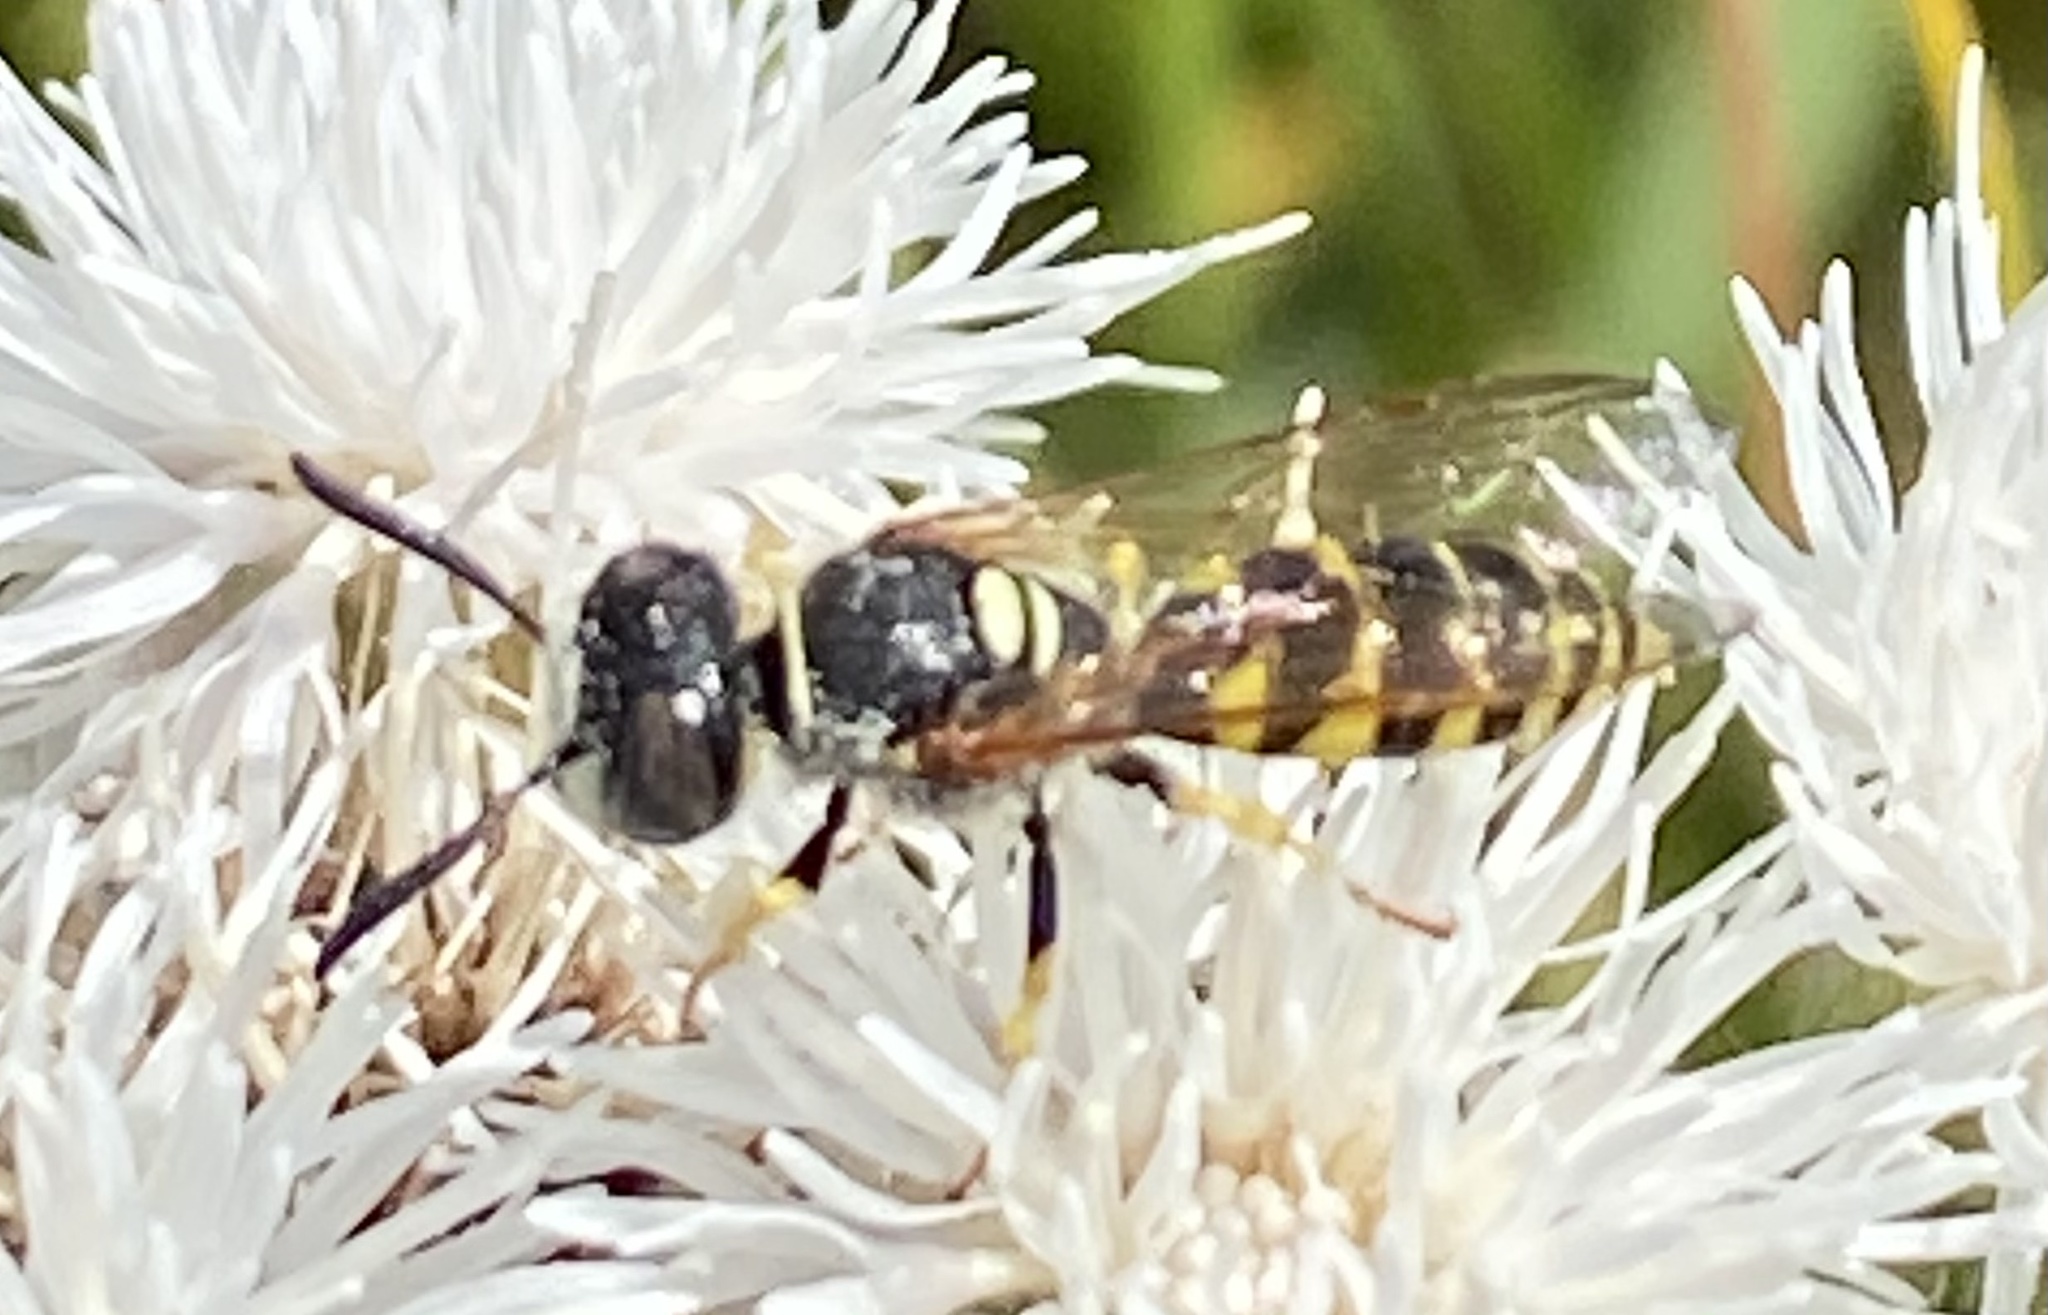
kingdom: Animalia
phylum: Arthropoda
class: Insecta
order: Hymenoptera
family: Crabronidae
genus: Philanthus
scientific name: Philanthus triangulum
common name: Bee wolf
